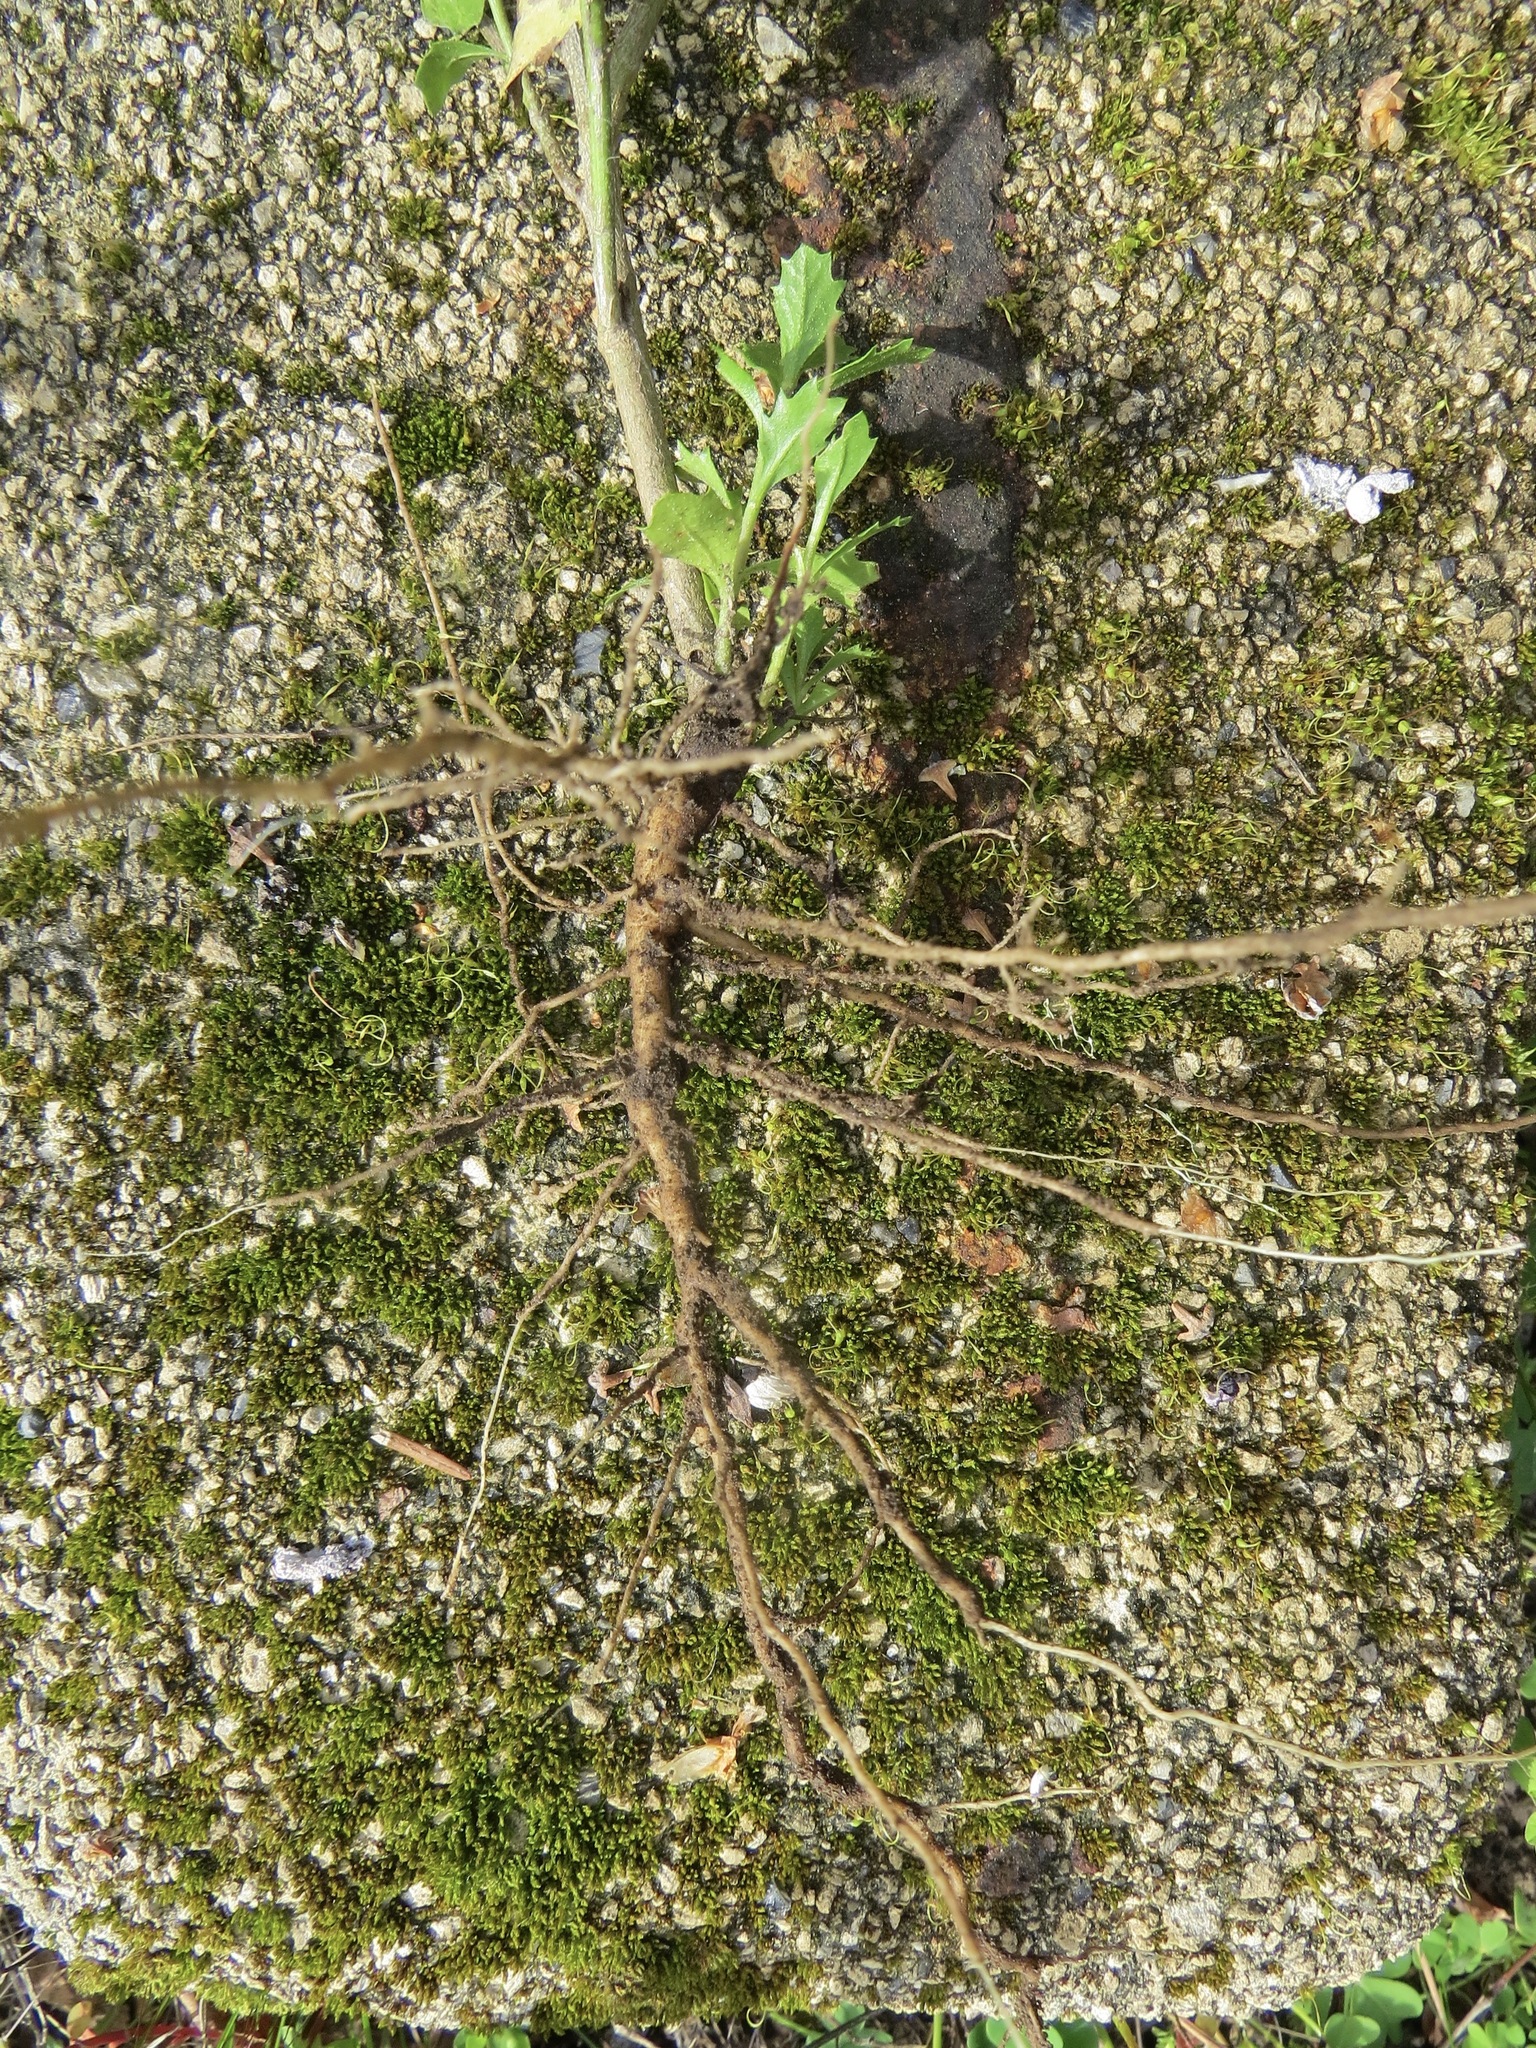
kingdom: Plantae
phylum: Tracheophyta
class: Magnoliopsida
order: Asterales
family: Asteraceae
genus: Baccharis
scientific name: Baccharis pilularis
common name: Coyotebrush
